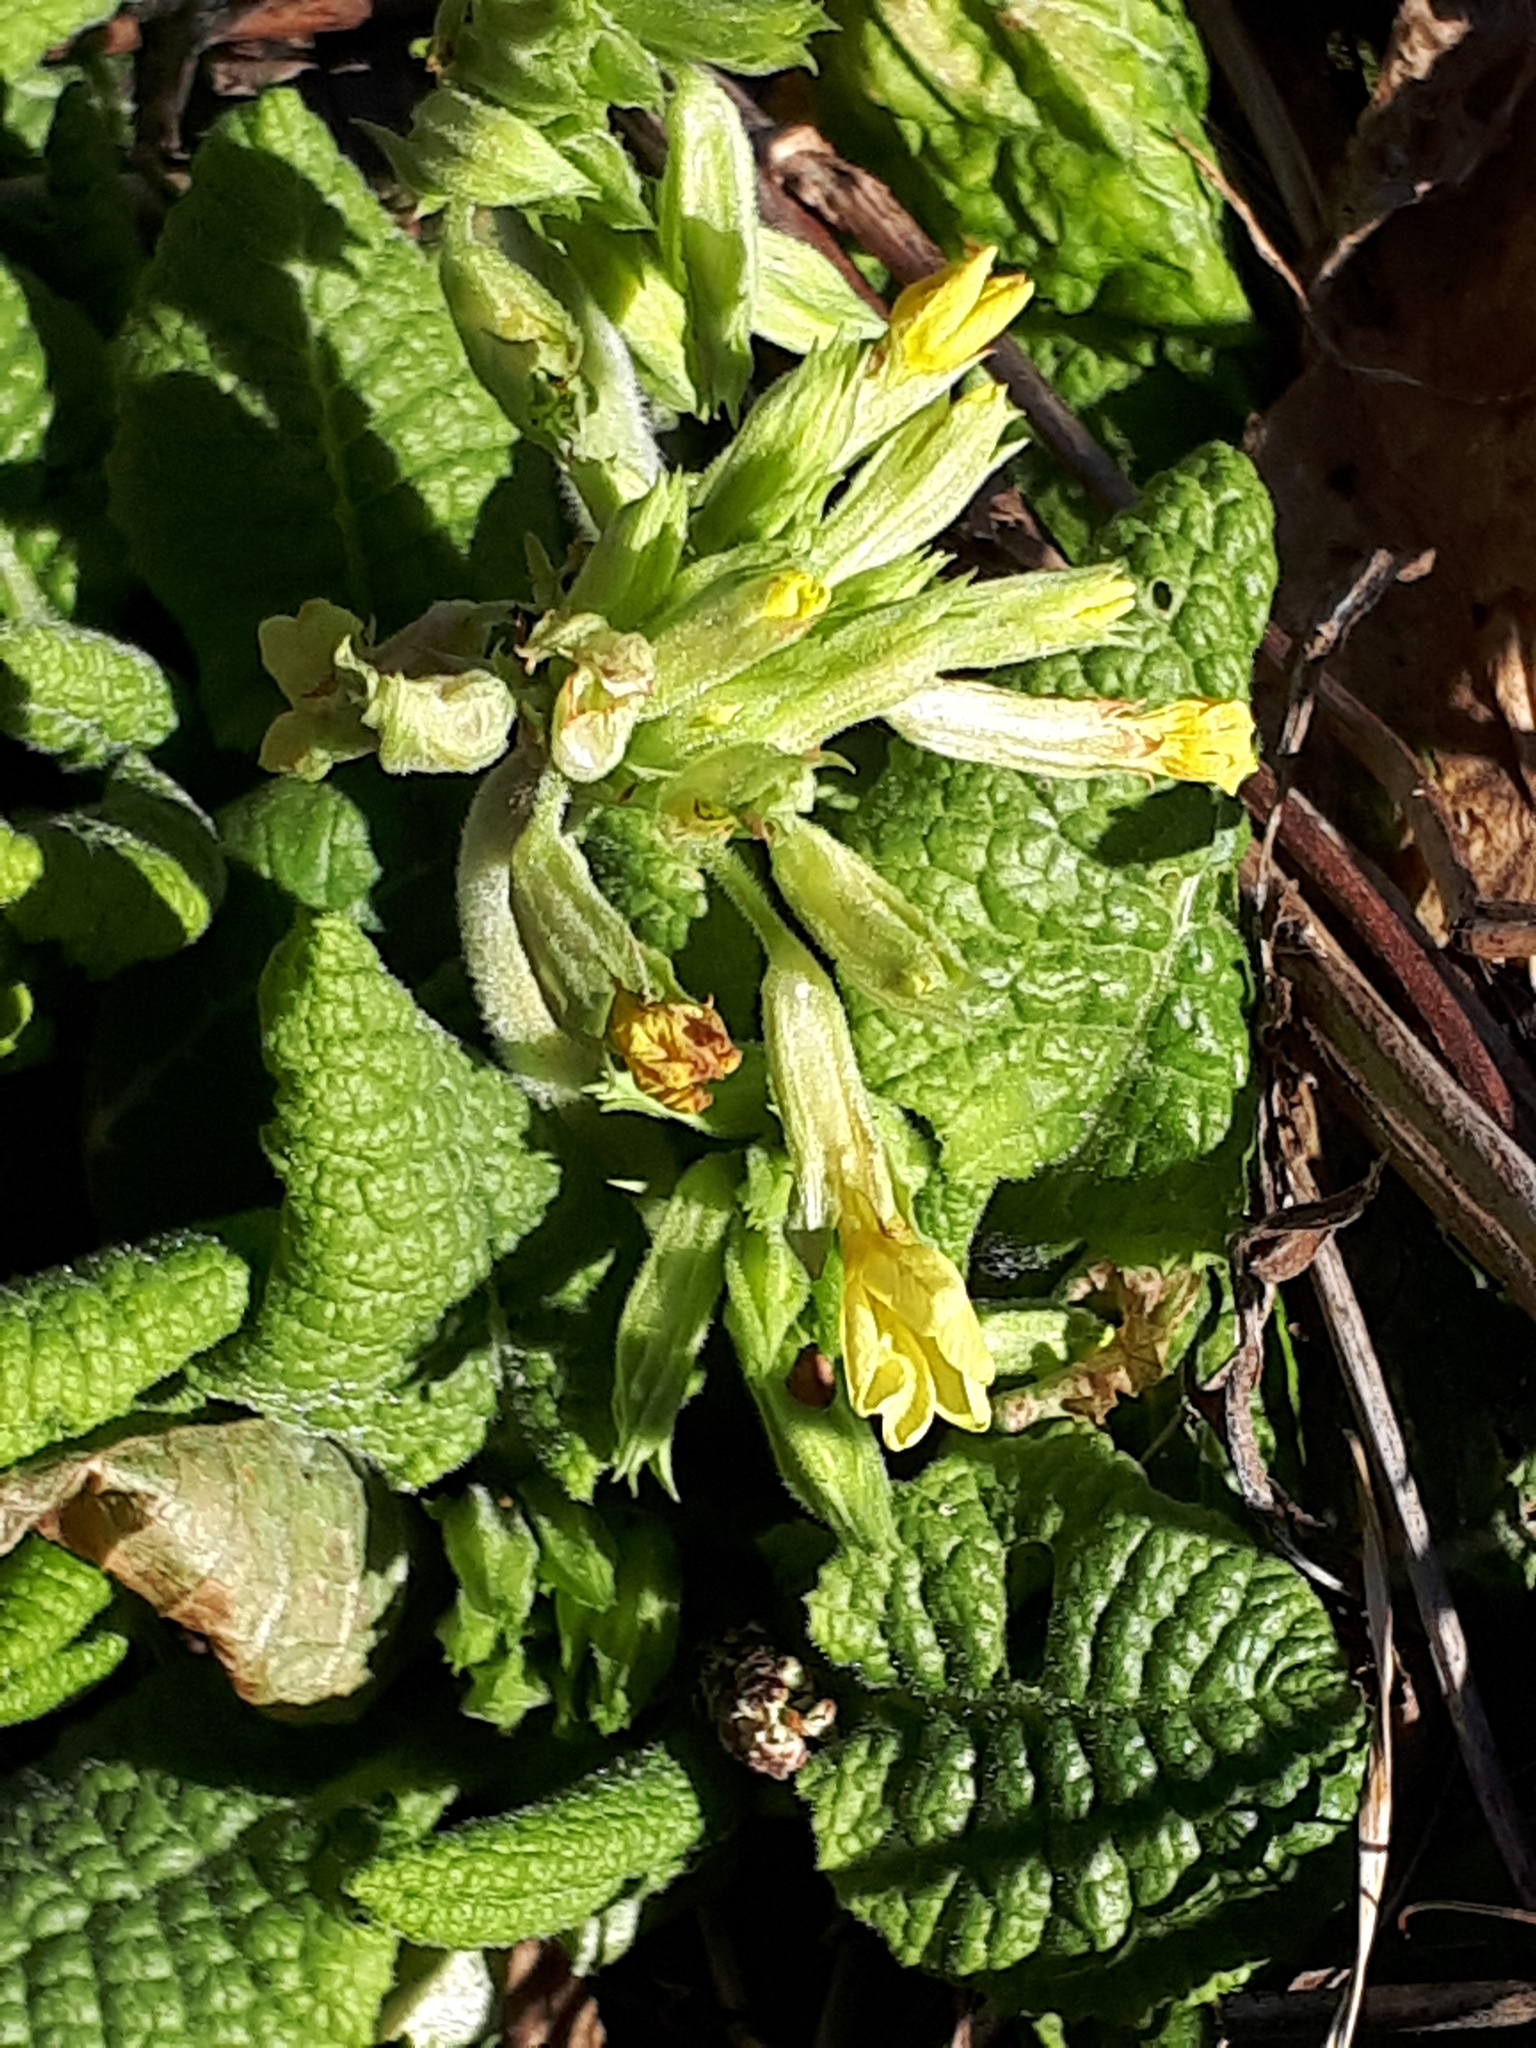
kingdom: Plantae
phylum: Tracheophyta
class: Magnoliopsida
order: Ericales
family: Primulaceae
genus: Primula
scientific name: Primula elatior
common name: Oxlip
